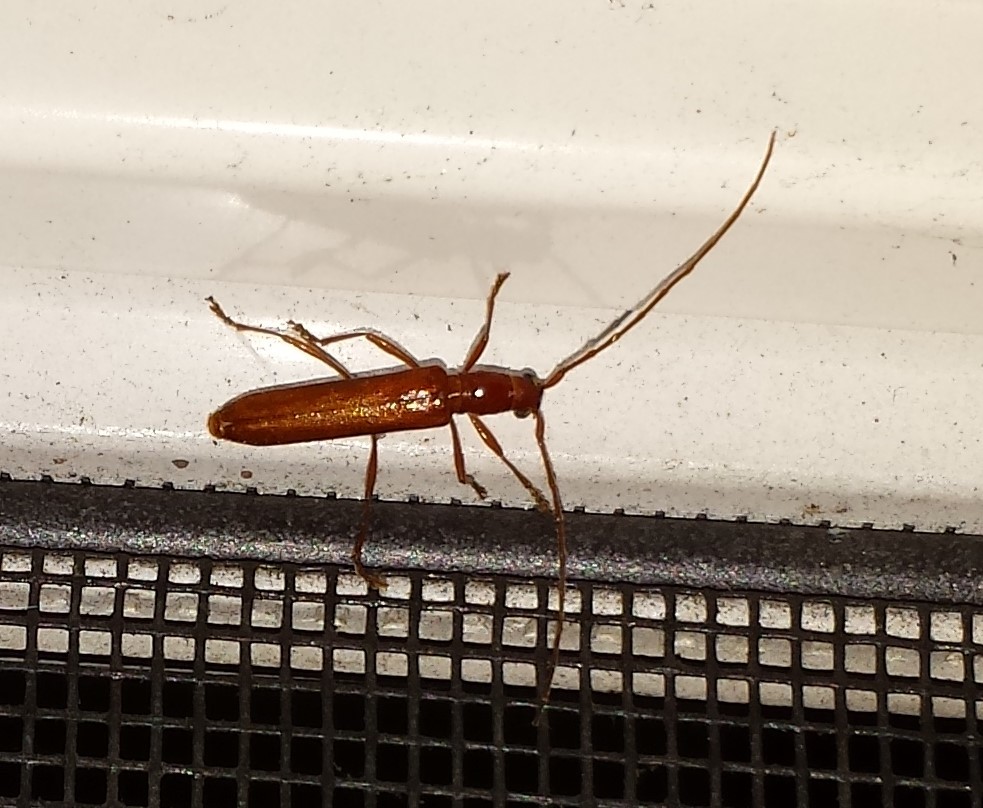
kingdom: Animalia
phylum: Arthropoda
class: Insecta
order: Coleoptera
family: Cerambycidae
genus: Psyrassa
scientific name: Psyrassa unicolor
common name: Branch pruner
